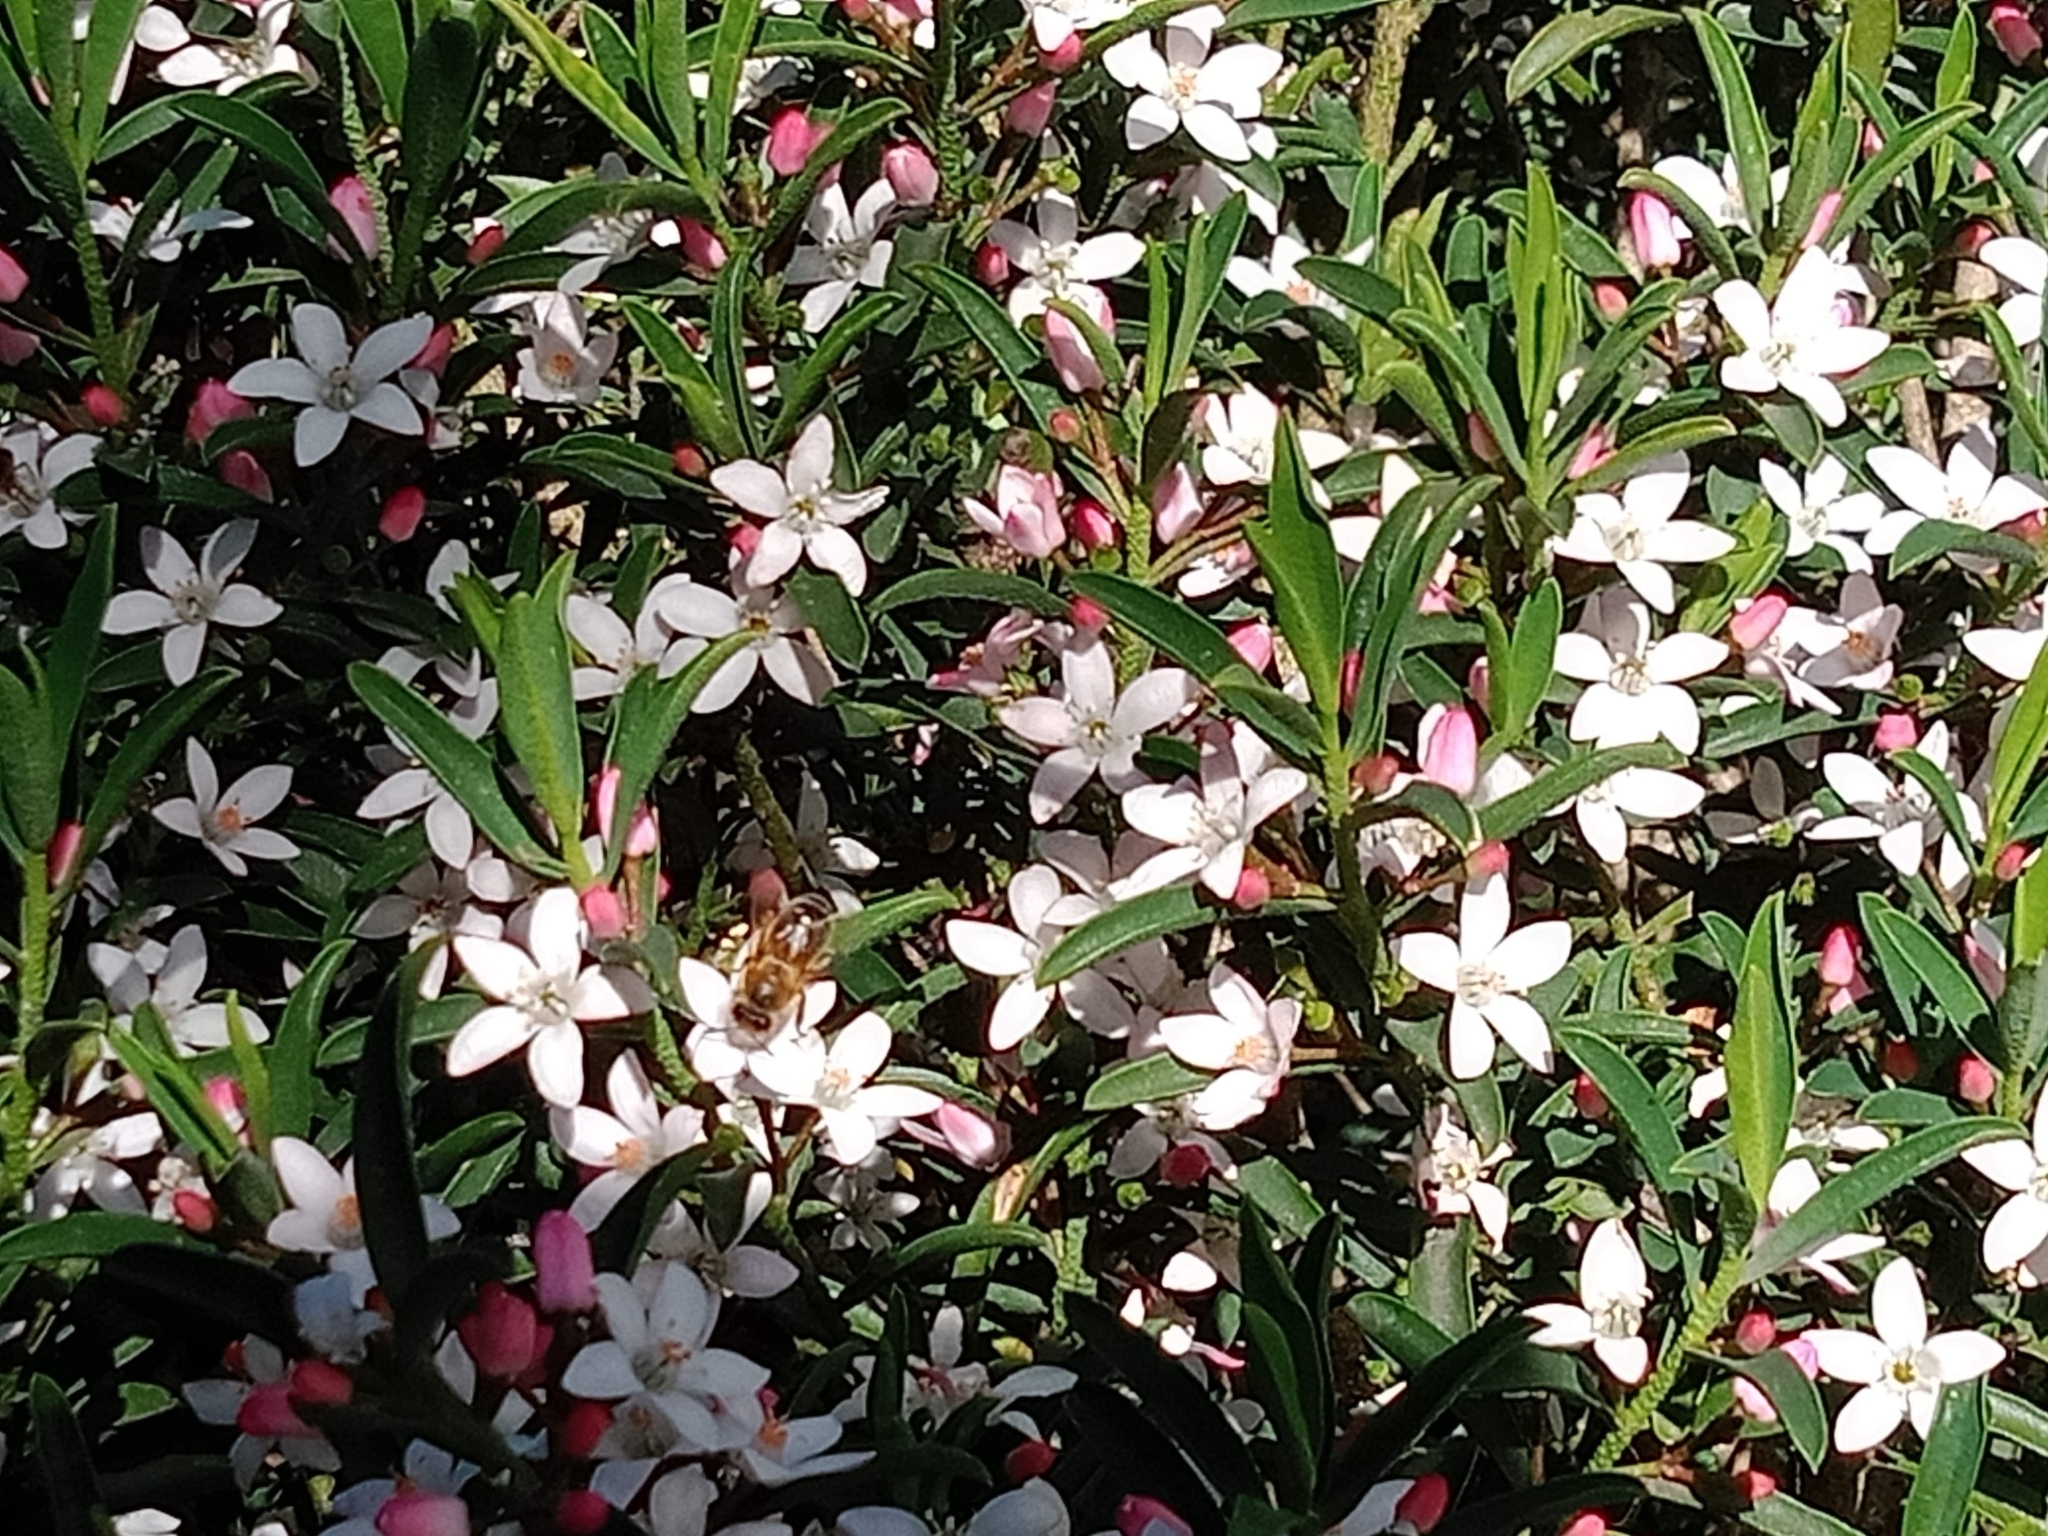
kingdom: Animalia
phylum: Arthropoda
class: Insecta
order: Hymenoptera
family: Apidae
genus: Apis
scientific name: Apis mellifera
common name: Honey bee
